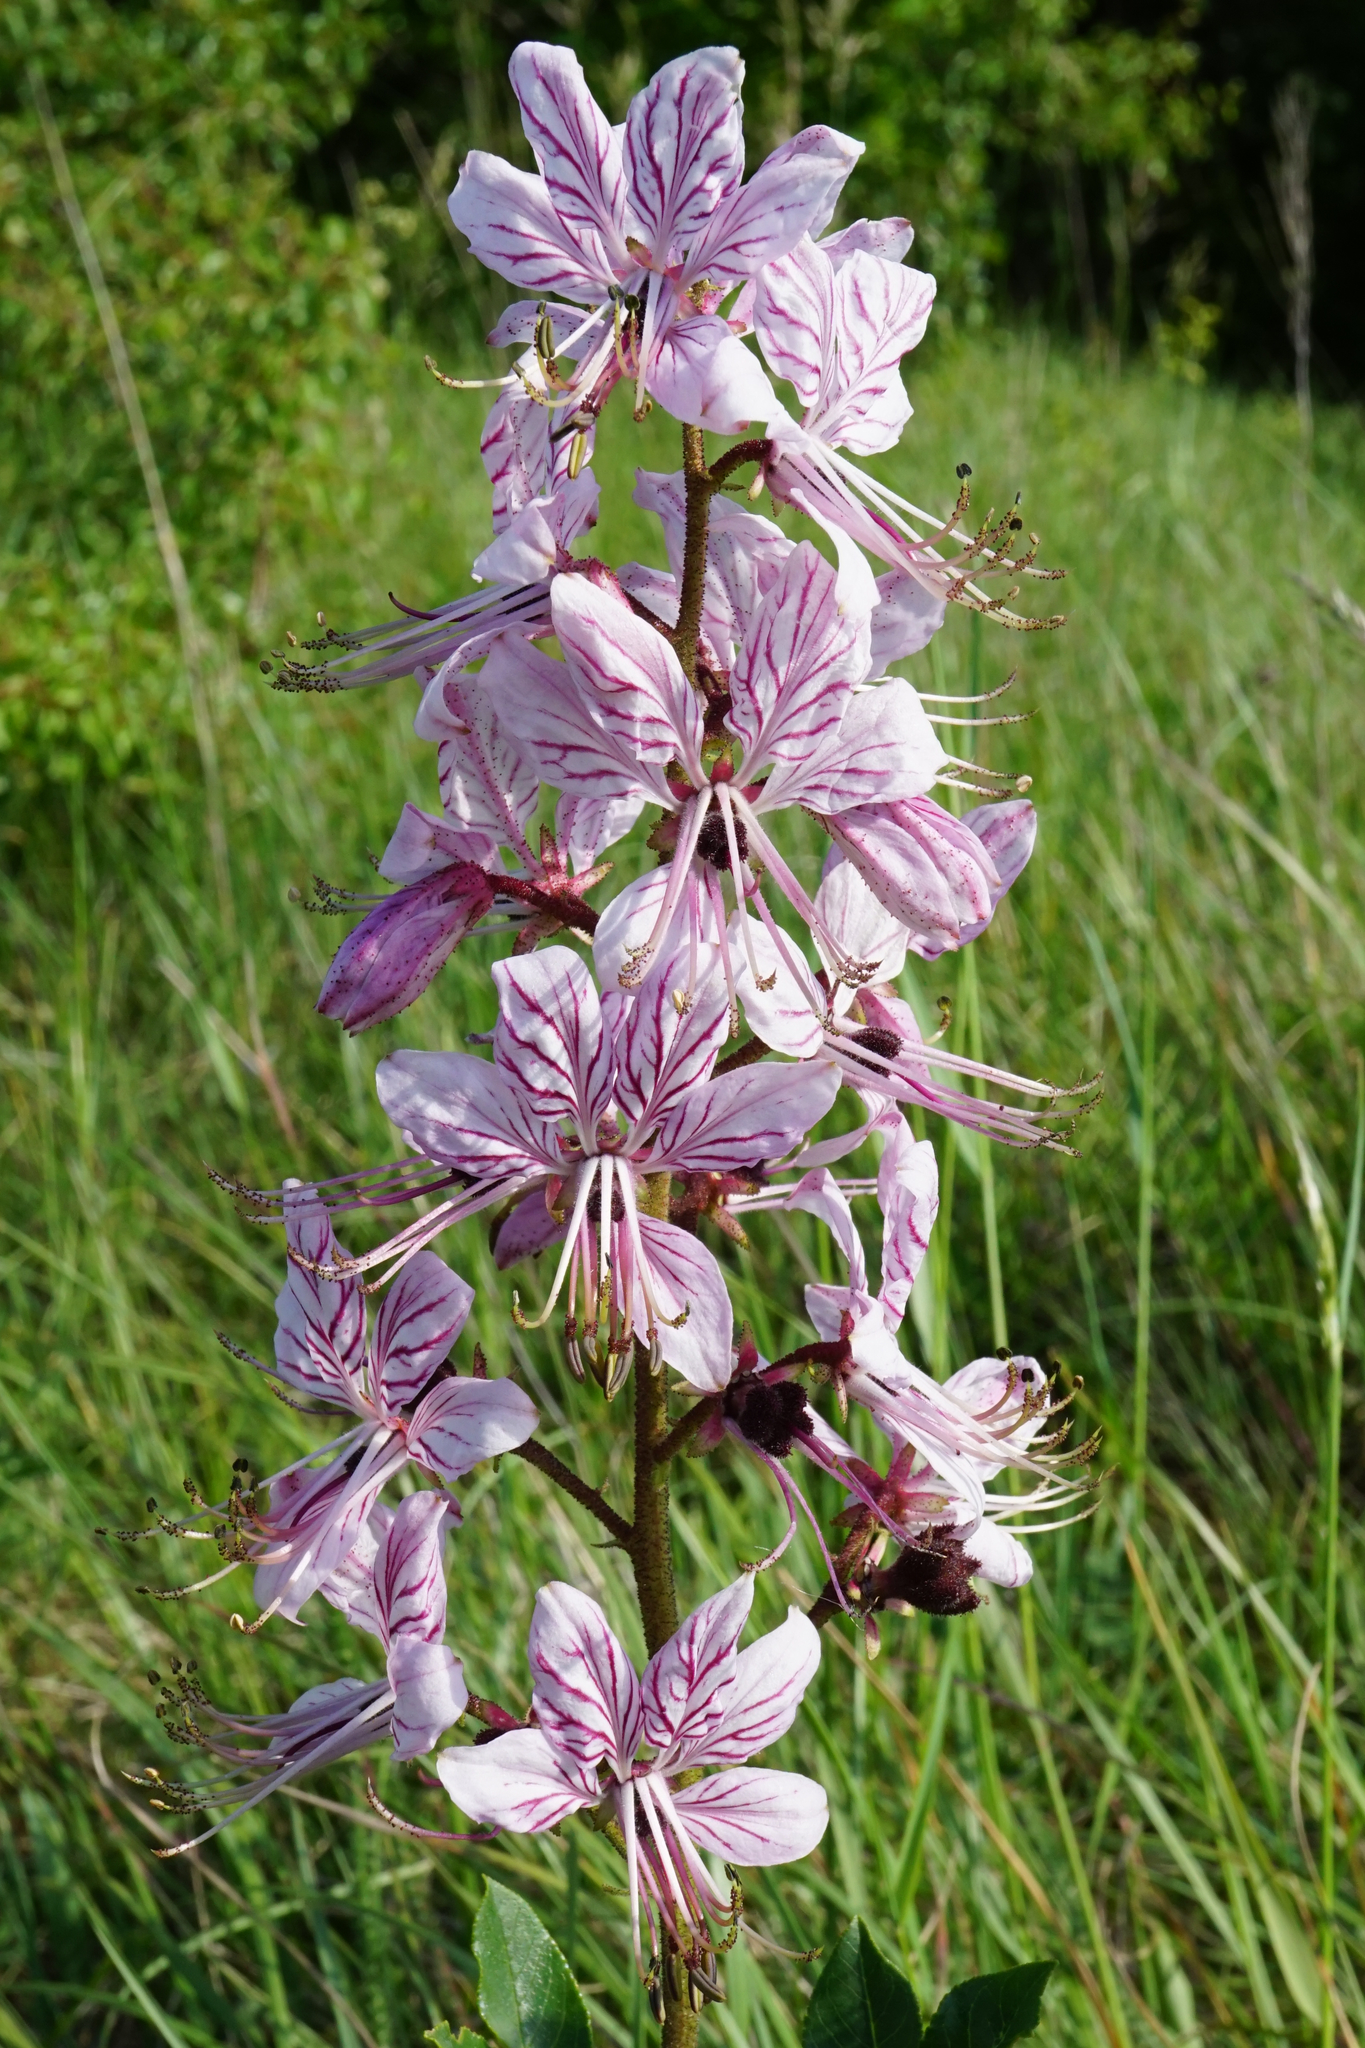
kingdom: Plantae
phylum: Tracheophyta
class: Magnoliopsida
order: Sapindales
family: Rutaceae
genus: Dictamnus
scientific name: Dictamnus albus
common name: Gasplant
